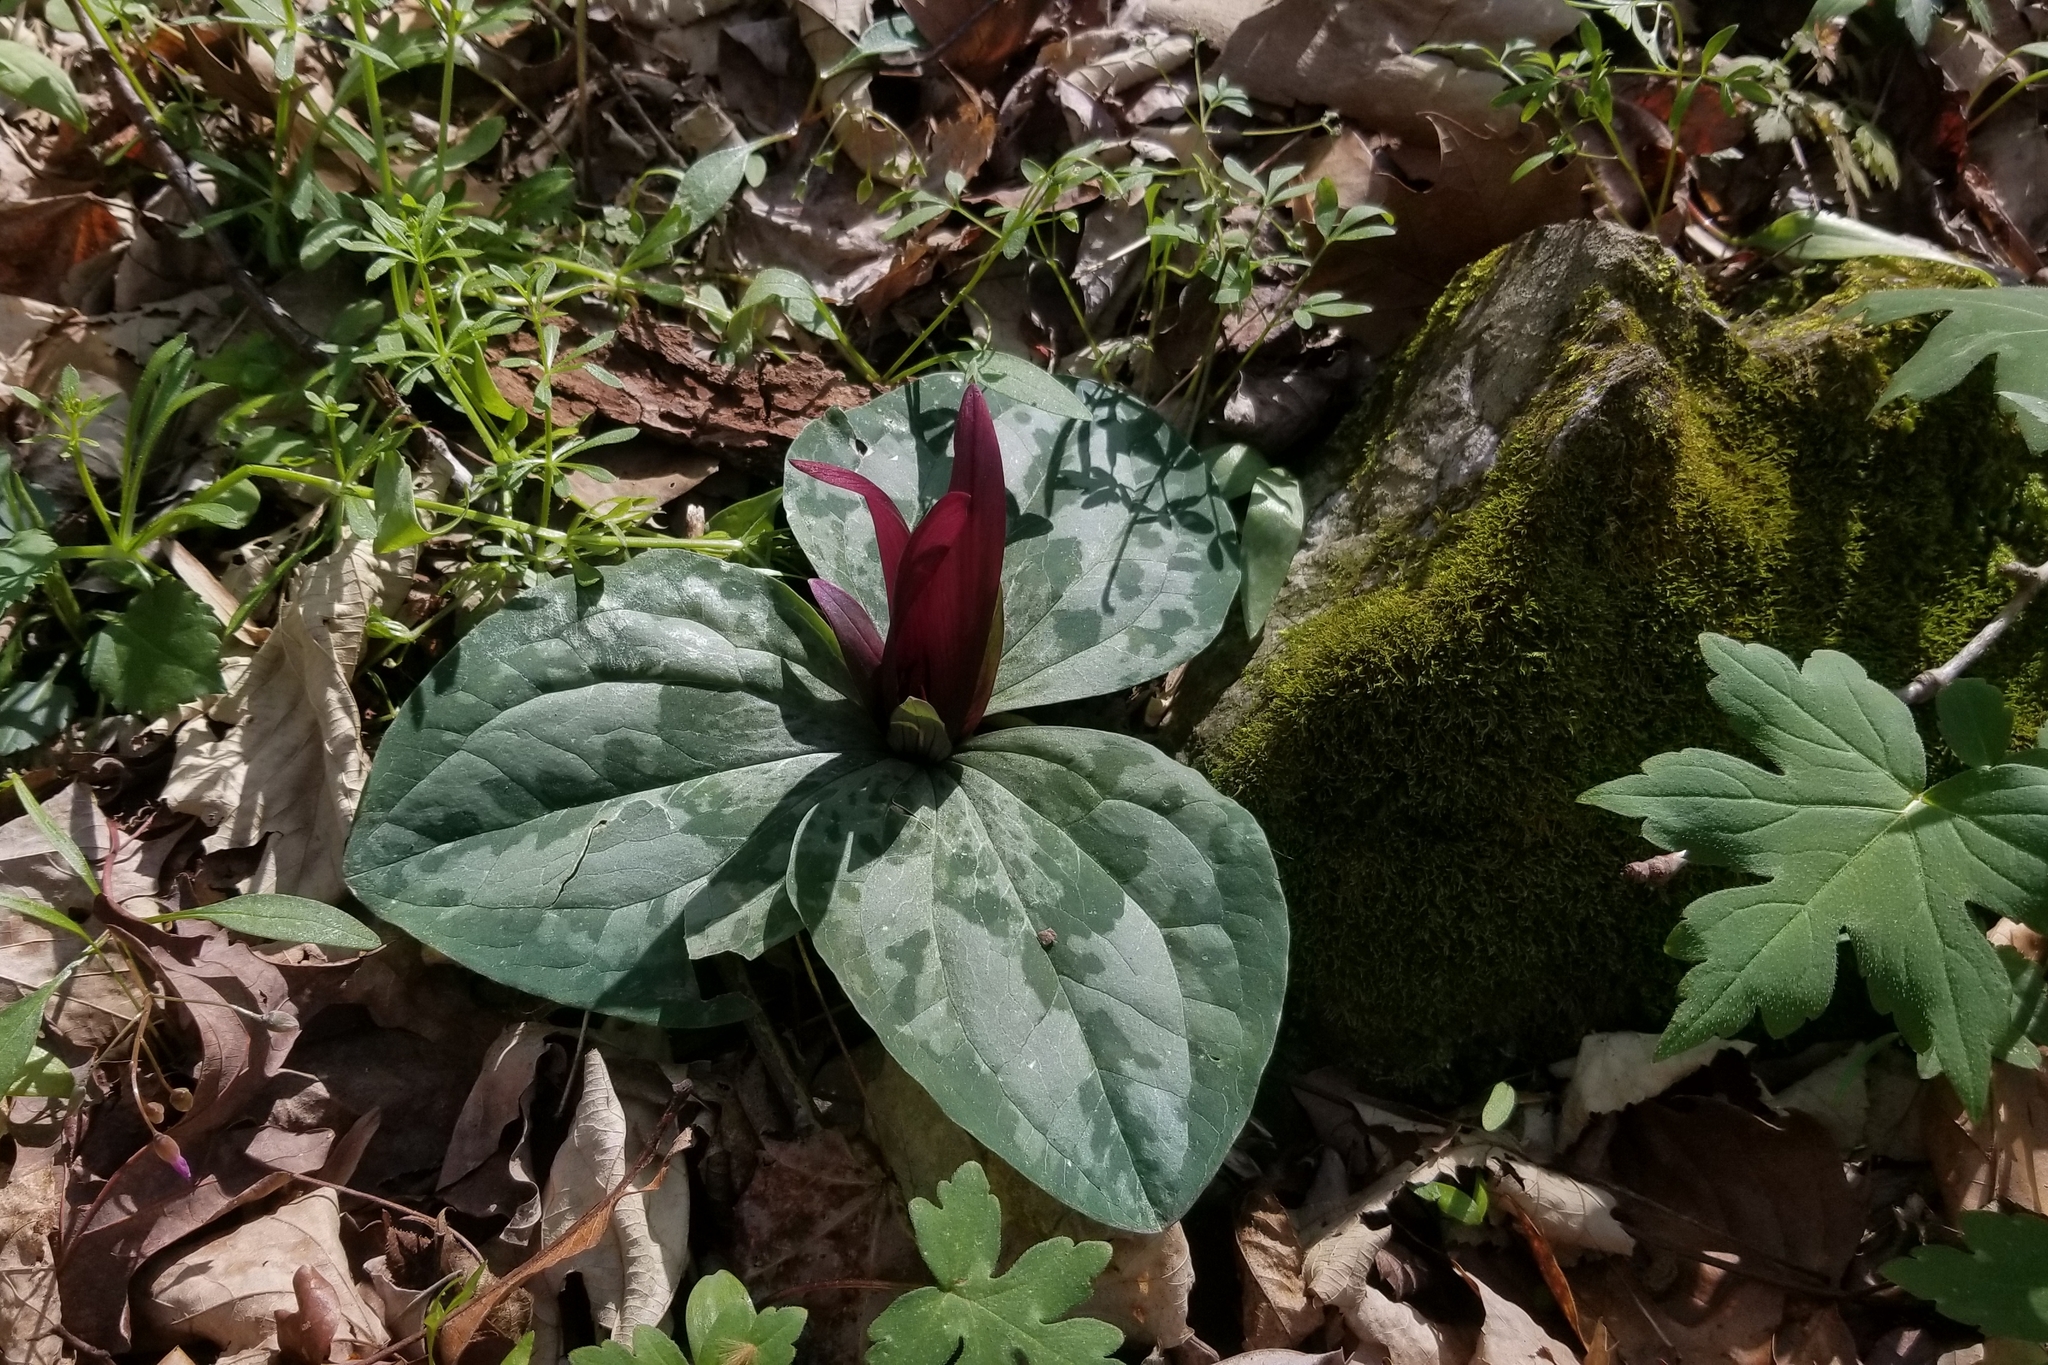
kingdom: Plantae
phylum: Tracheophyta
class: Liliopsida
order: Liliales
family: Melanthiaceae
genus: Trillium
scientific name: Trillium decumbens
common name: Decumbent trillium
